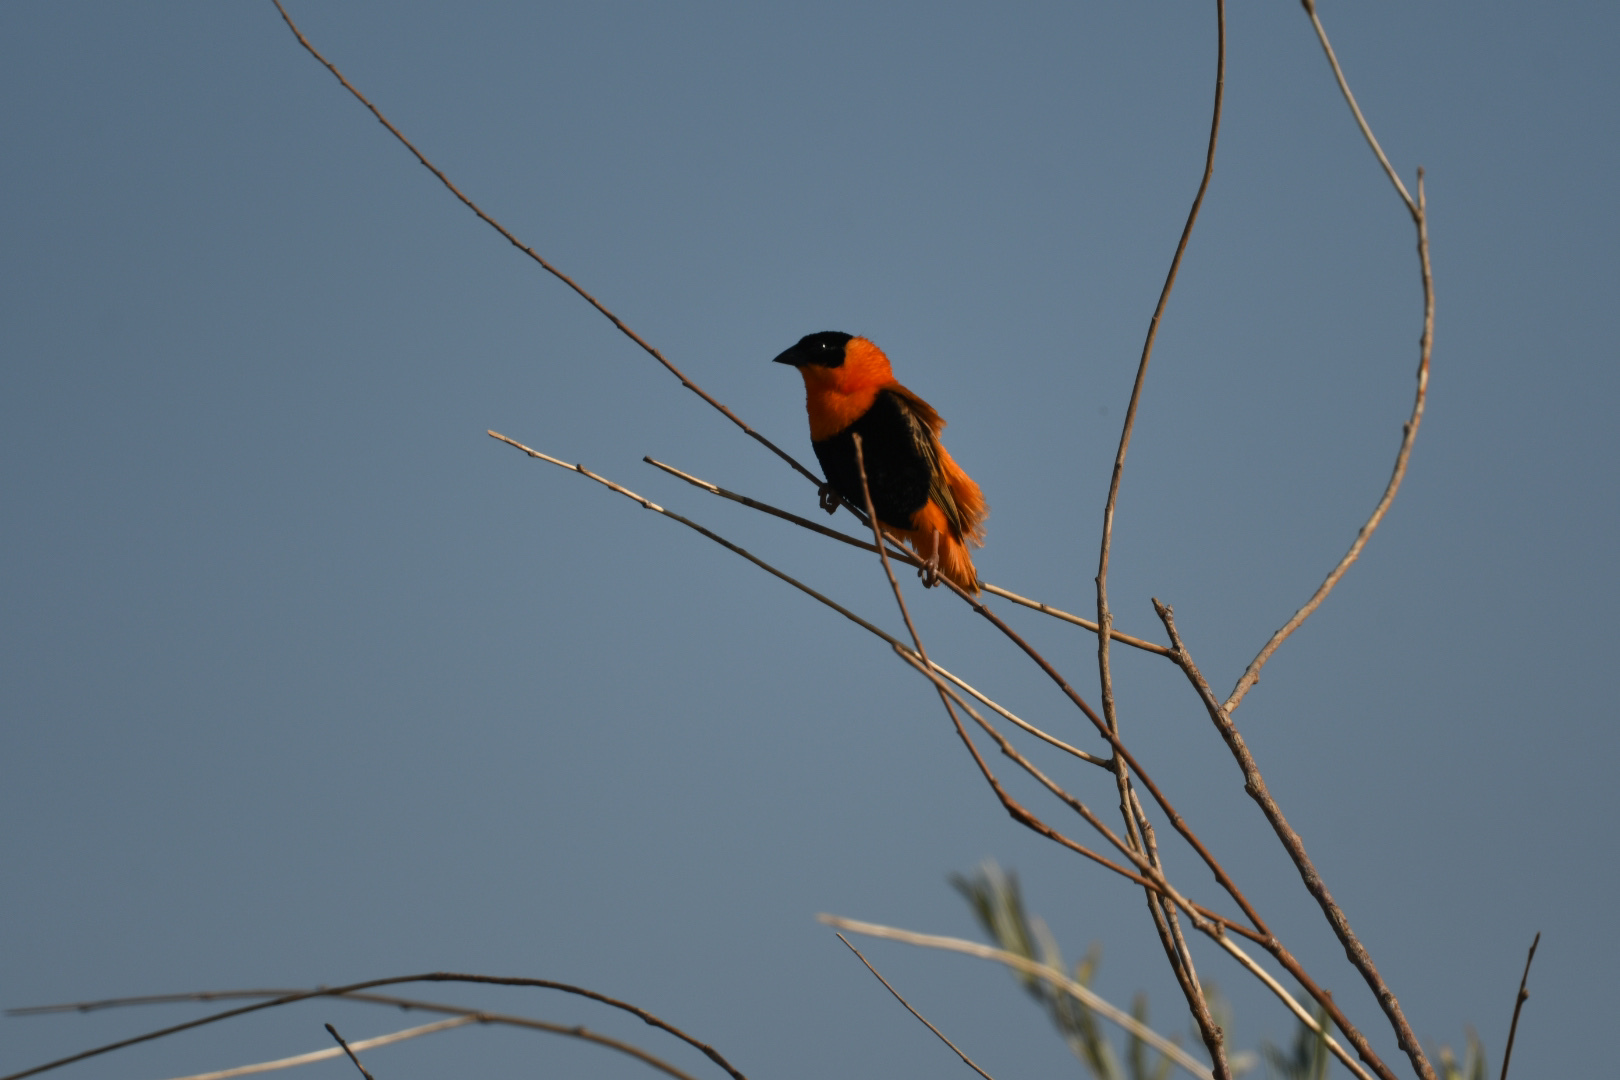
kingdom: Animalia
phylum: Chordata
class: Aves
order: Passeriformes
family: Ploceidae
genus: Euplectes
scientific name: Euplectes franciscanus
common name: Northern red bishop
